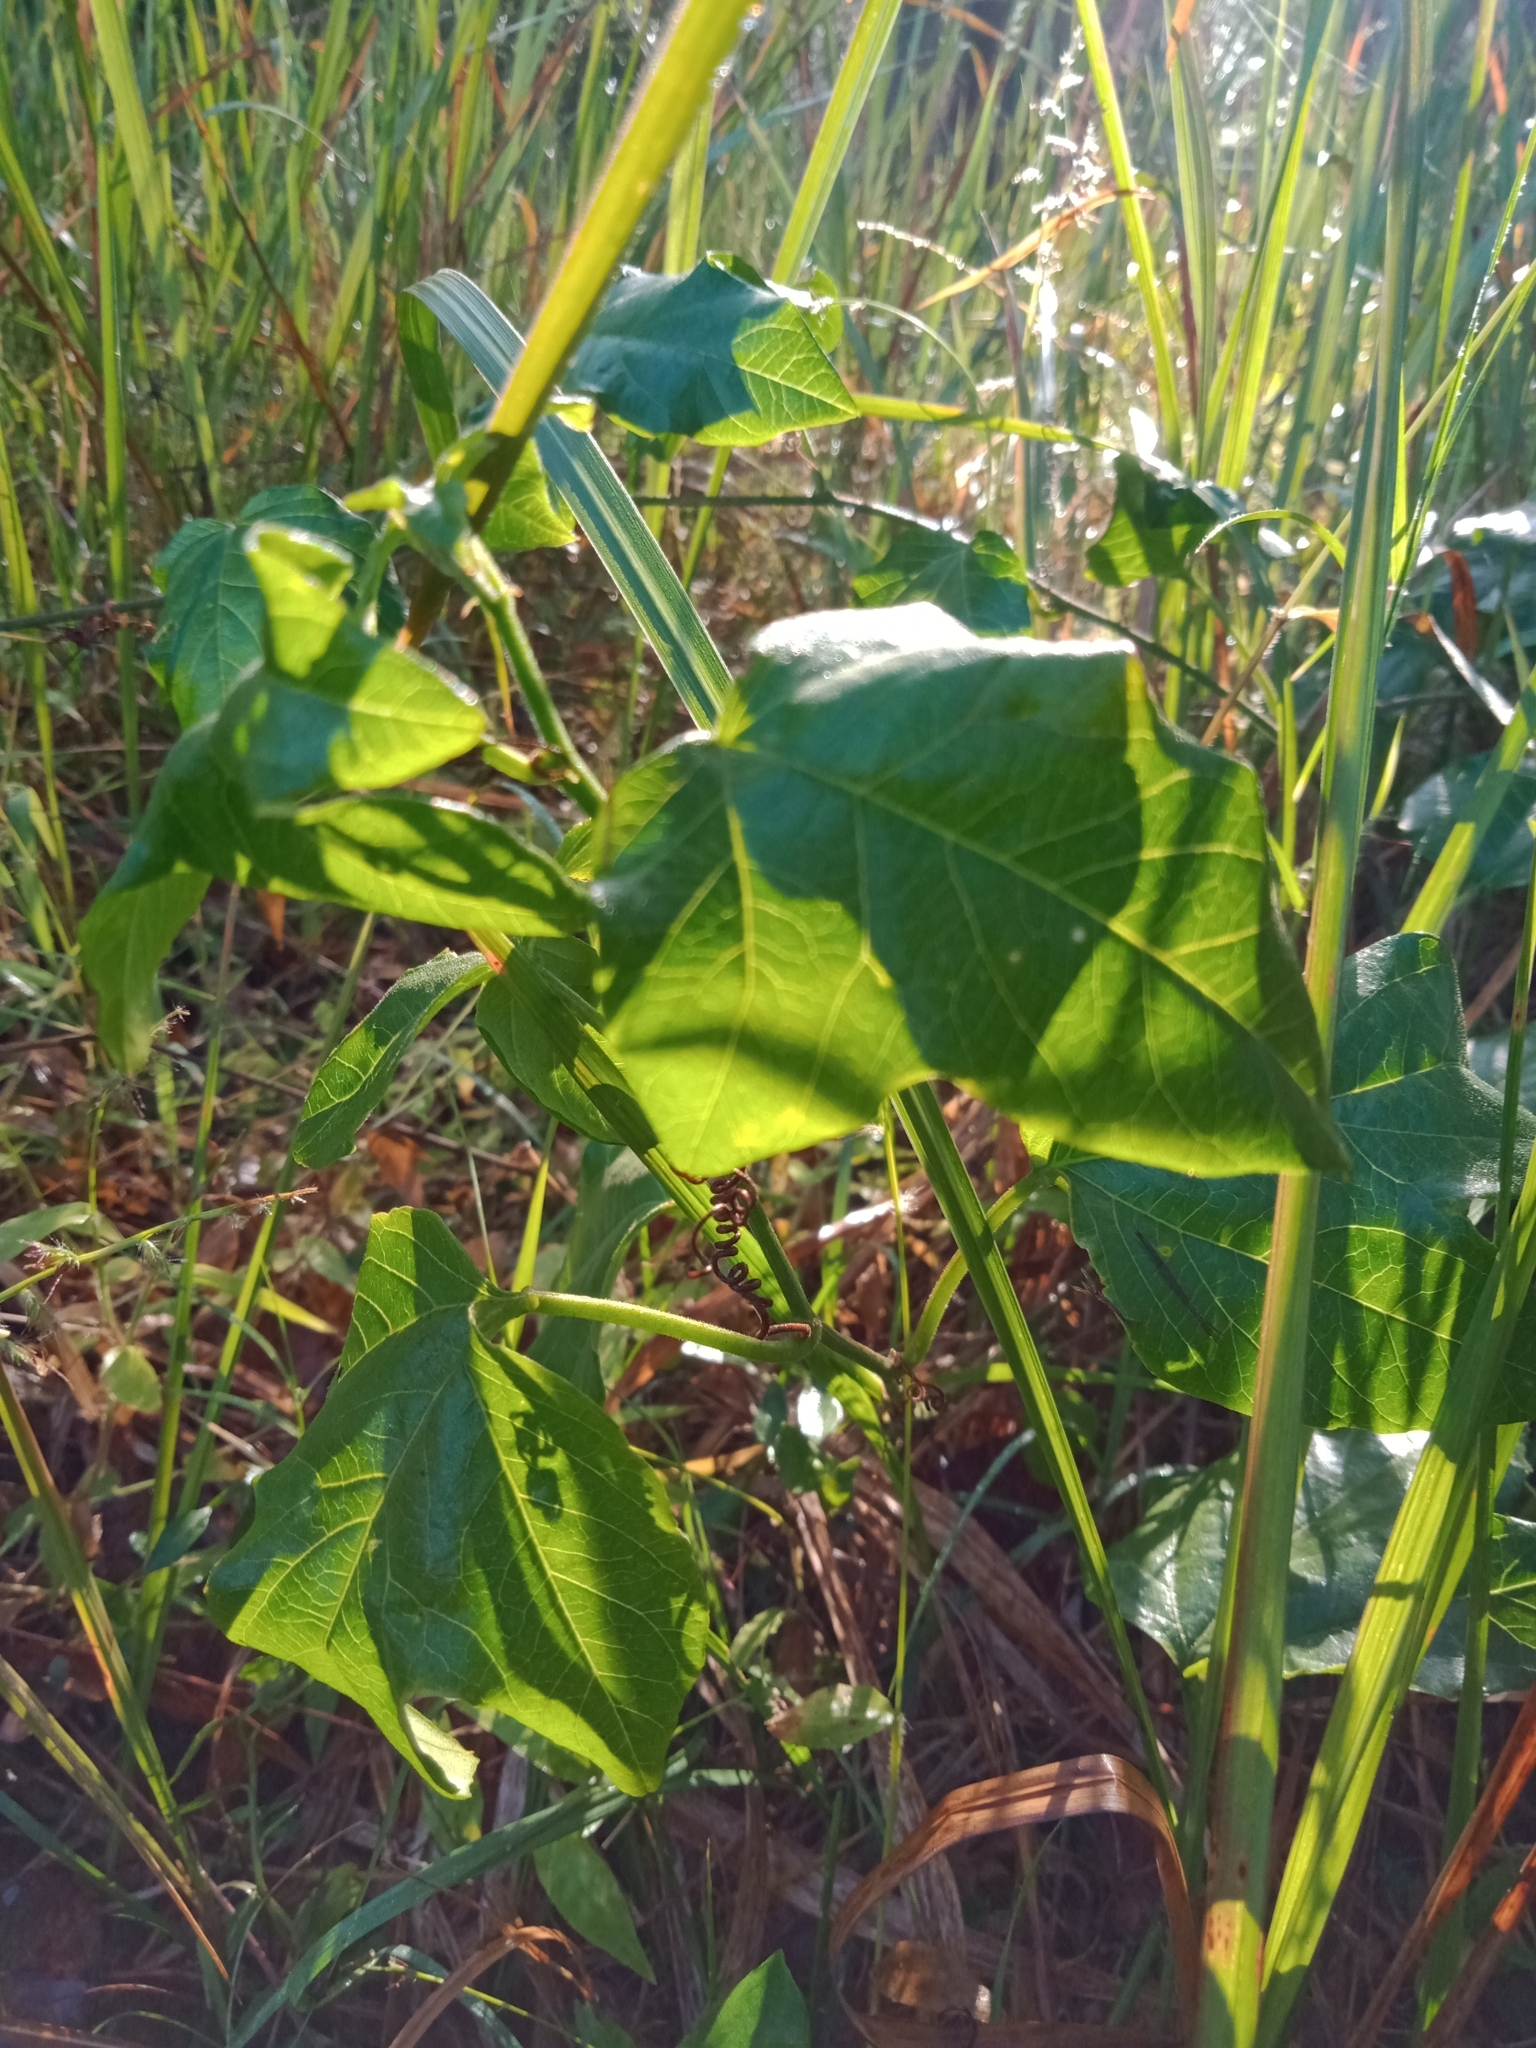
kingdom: Plantae
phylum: Tracheophyta
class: Magnoliopsida
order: Malpighiales
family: Passifloraceae
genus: Passiflora
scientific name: Passiflora herbertiana
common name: Yellow passionflower
